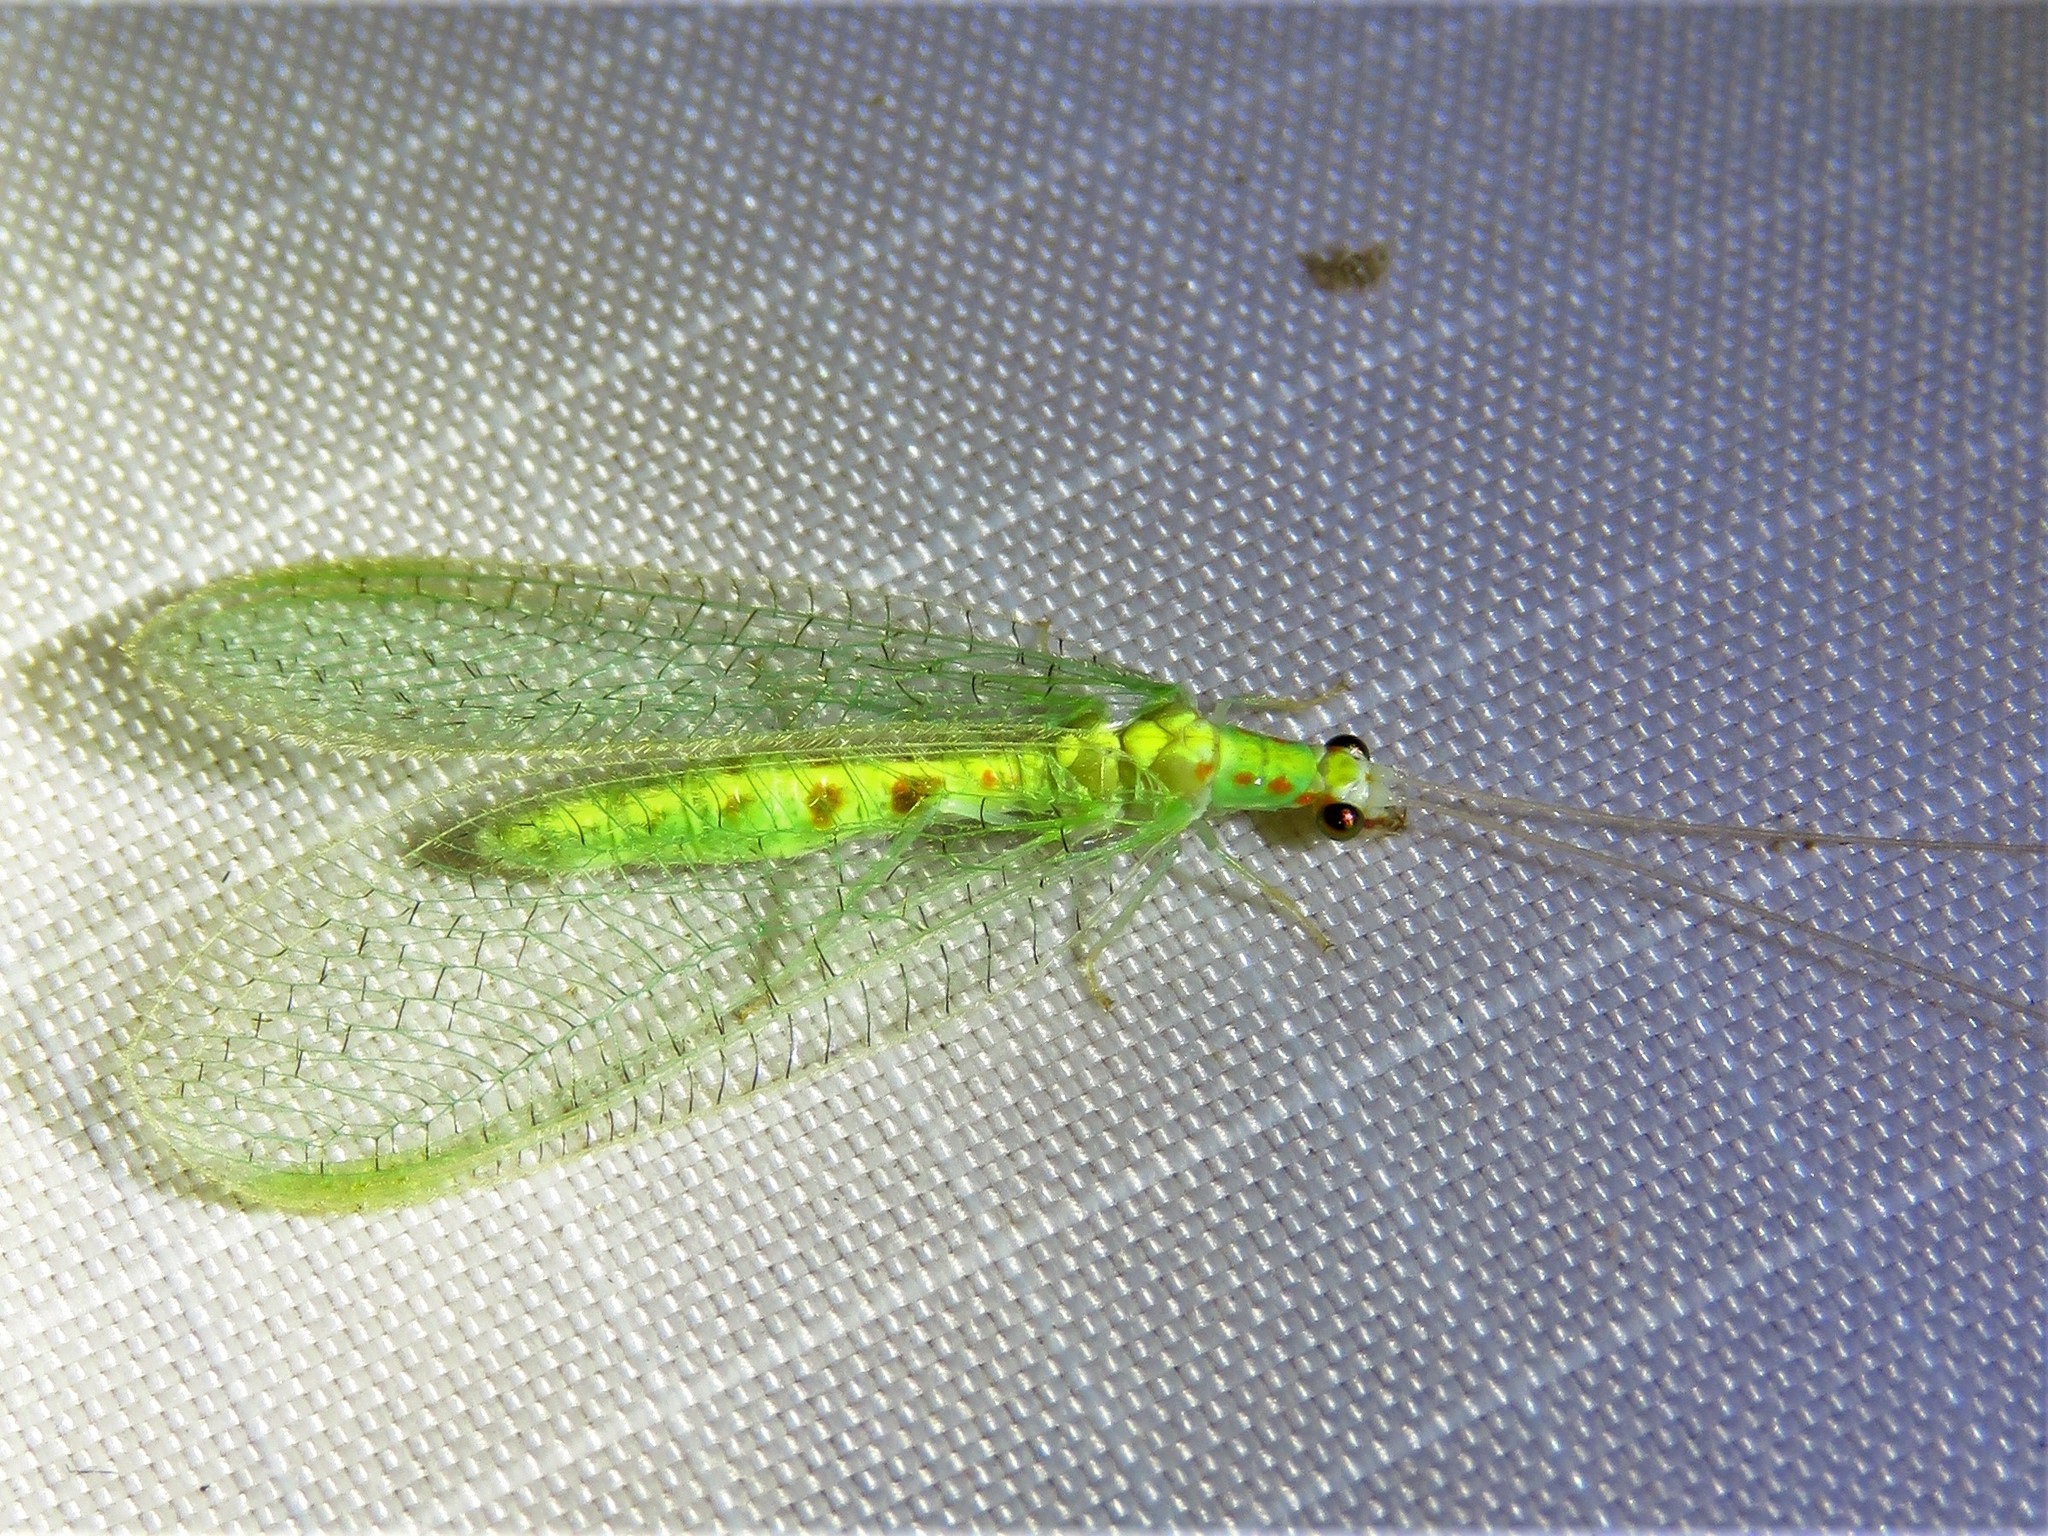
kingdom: Animalia
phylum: Arthropoda
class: Insecta
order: Neuroptera
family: Chrysopidae
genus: Chrysopa
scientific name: Chrysopa quadripunctata
